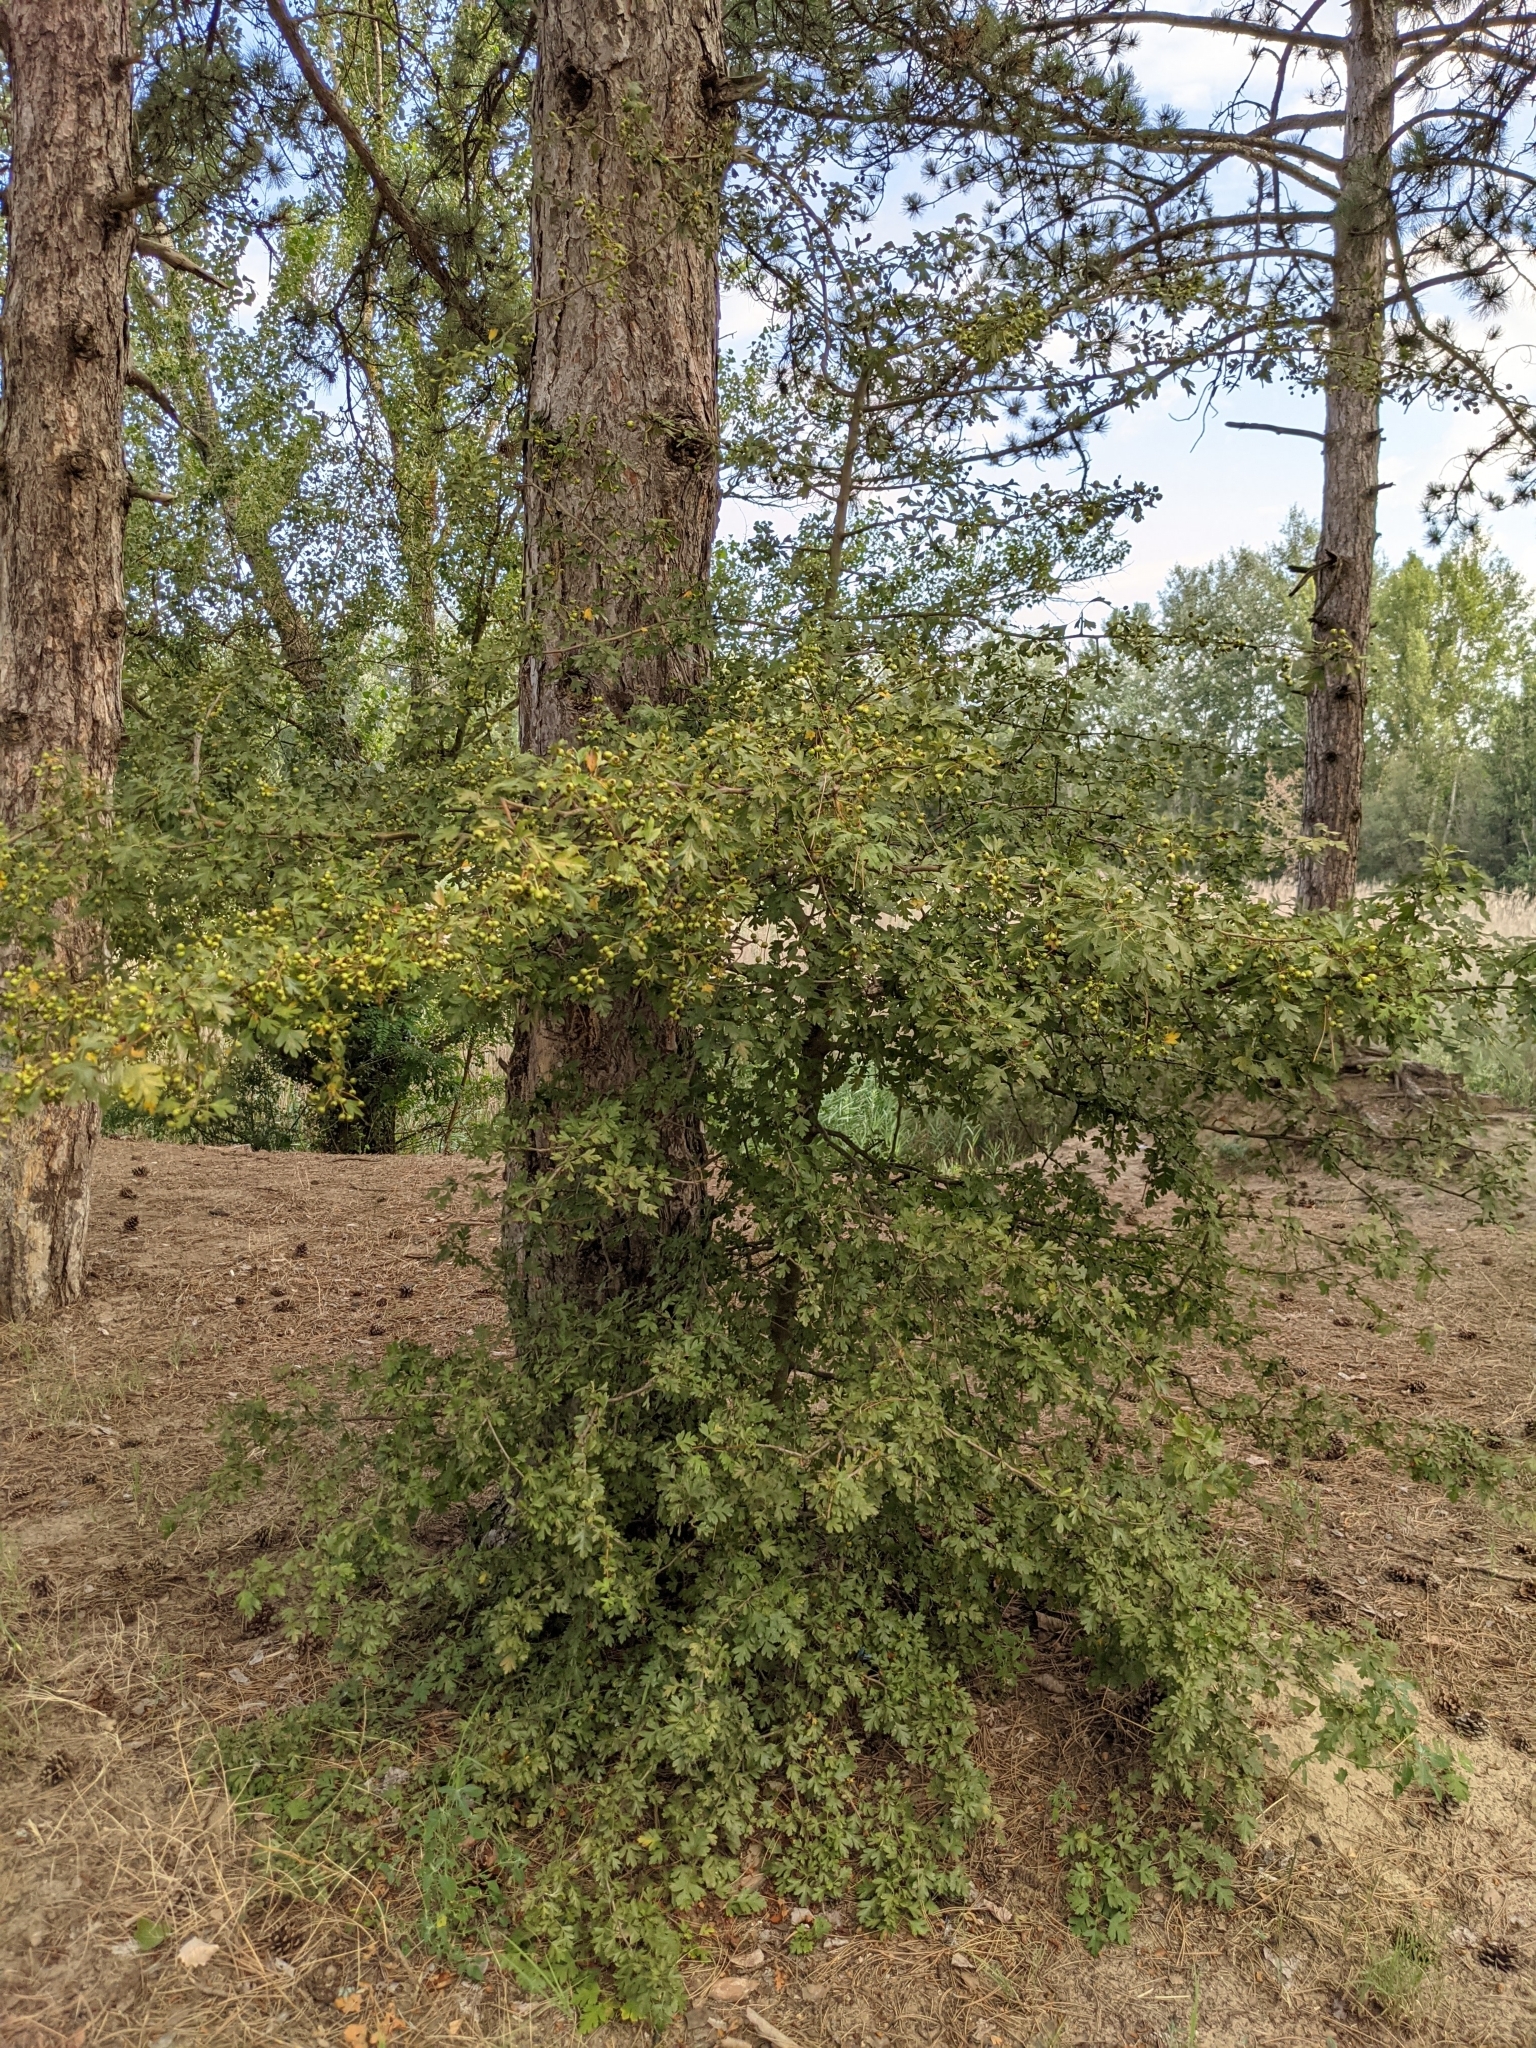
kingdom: Plantae
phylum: Tracheophyta
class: Magnoliopsida
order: Rosales
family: Rosaceae
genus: Crataegus
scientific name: Crataegus monogyna
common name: Hawthorn
